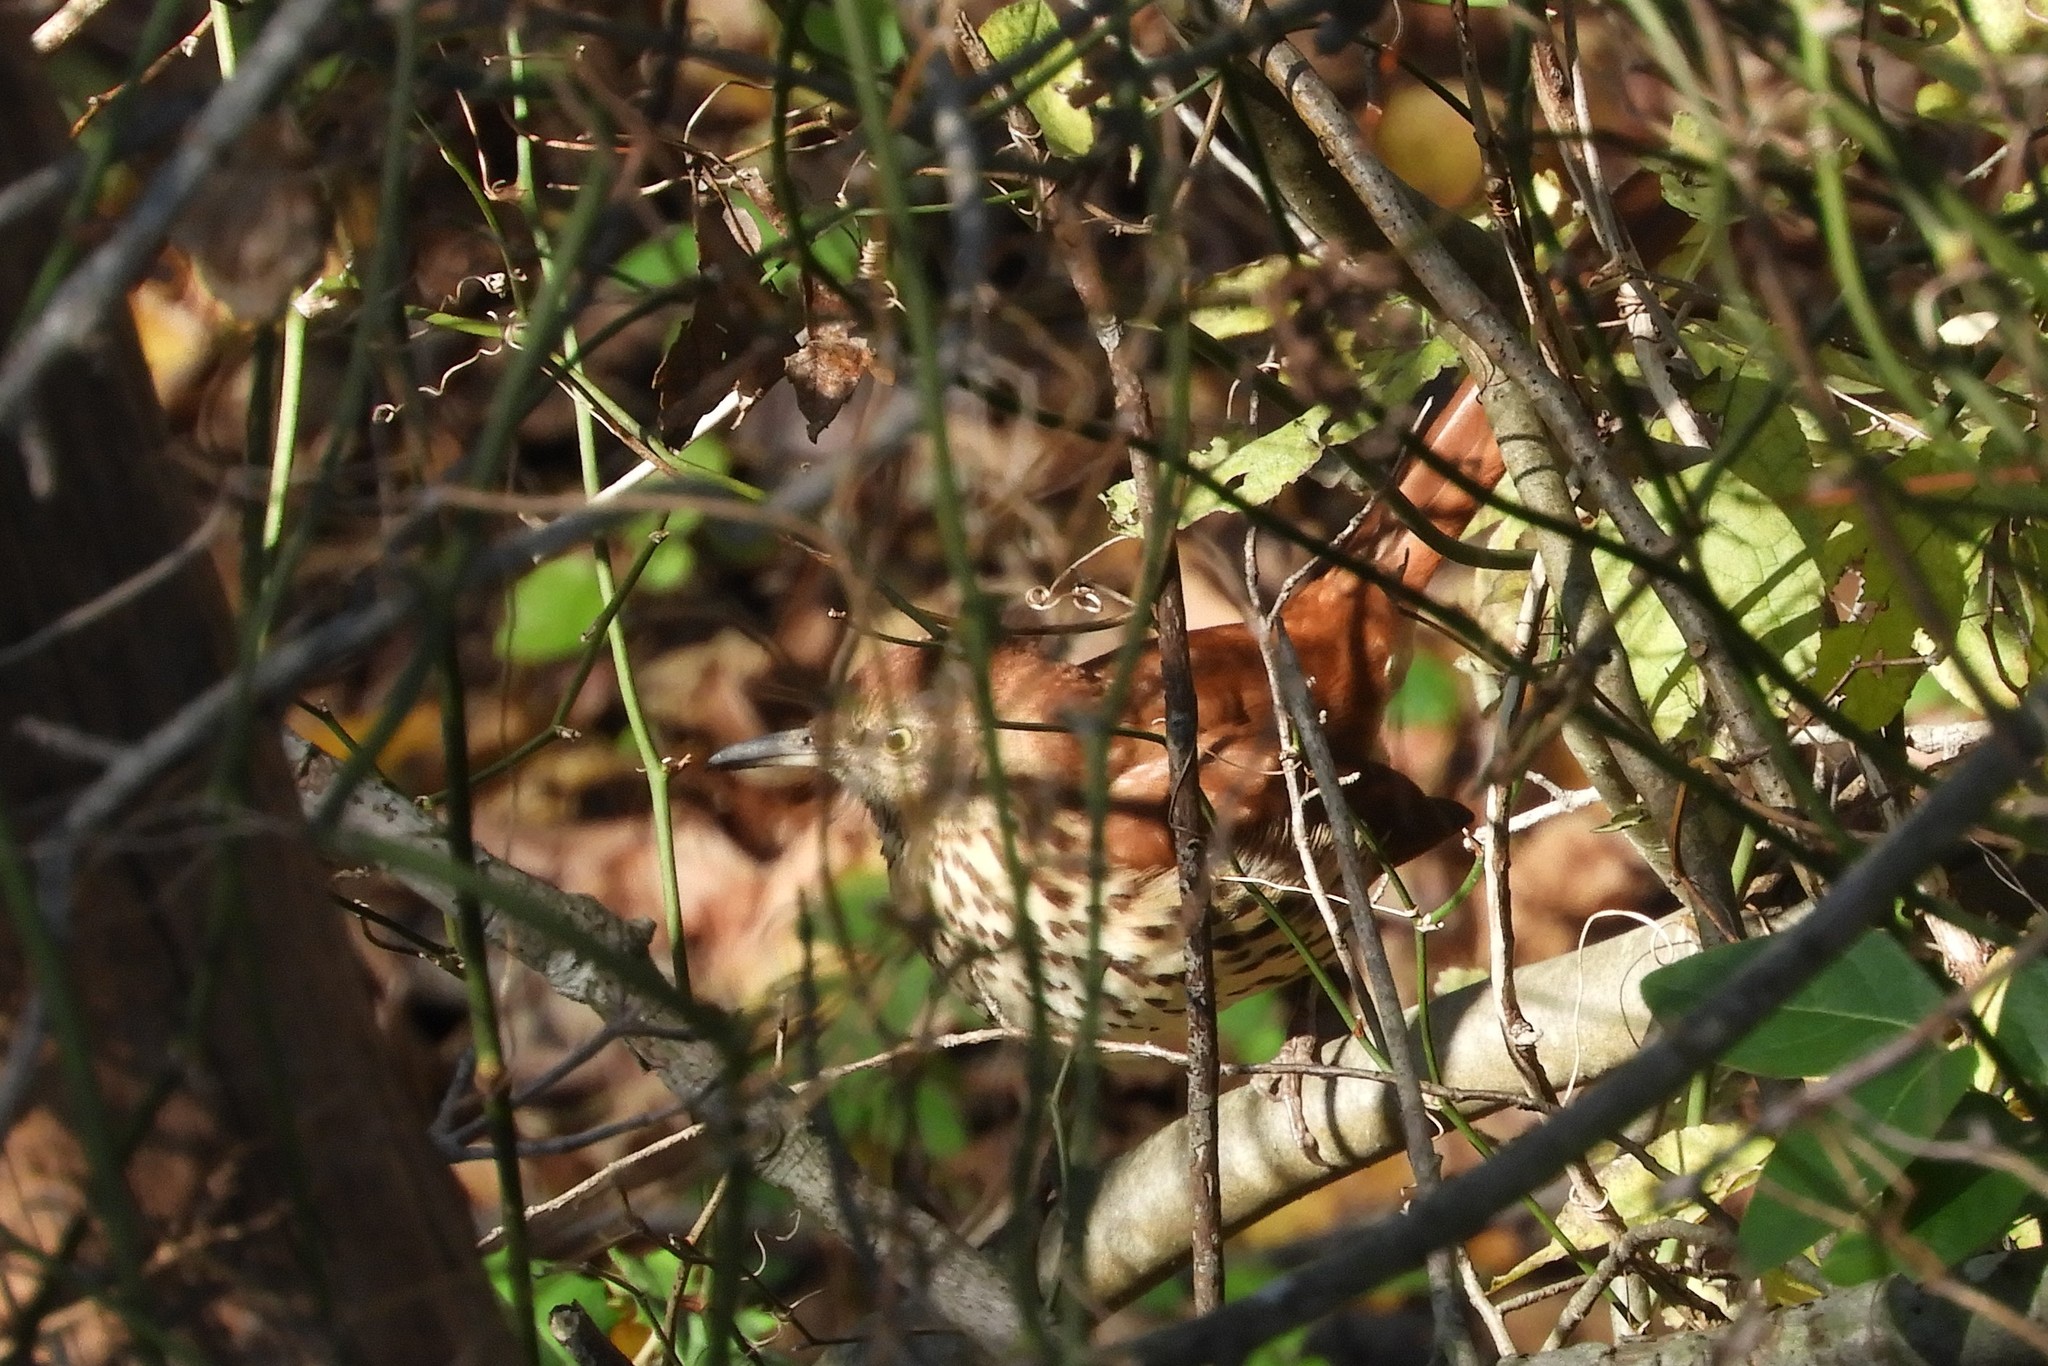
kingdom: Animalia
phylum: Chordata
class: Aves
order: Passeriformes
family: Mimidae
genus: Toxostoma
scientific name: Toxostoma rufum
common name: Brown thrasher
